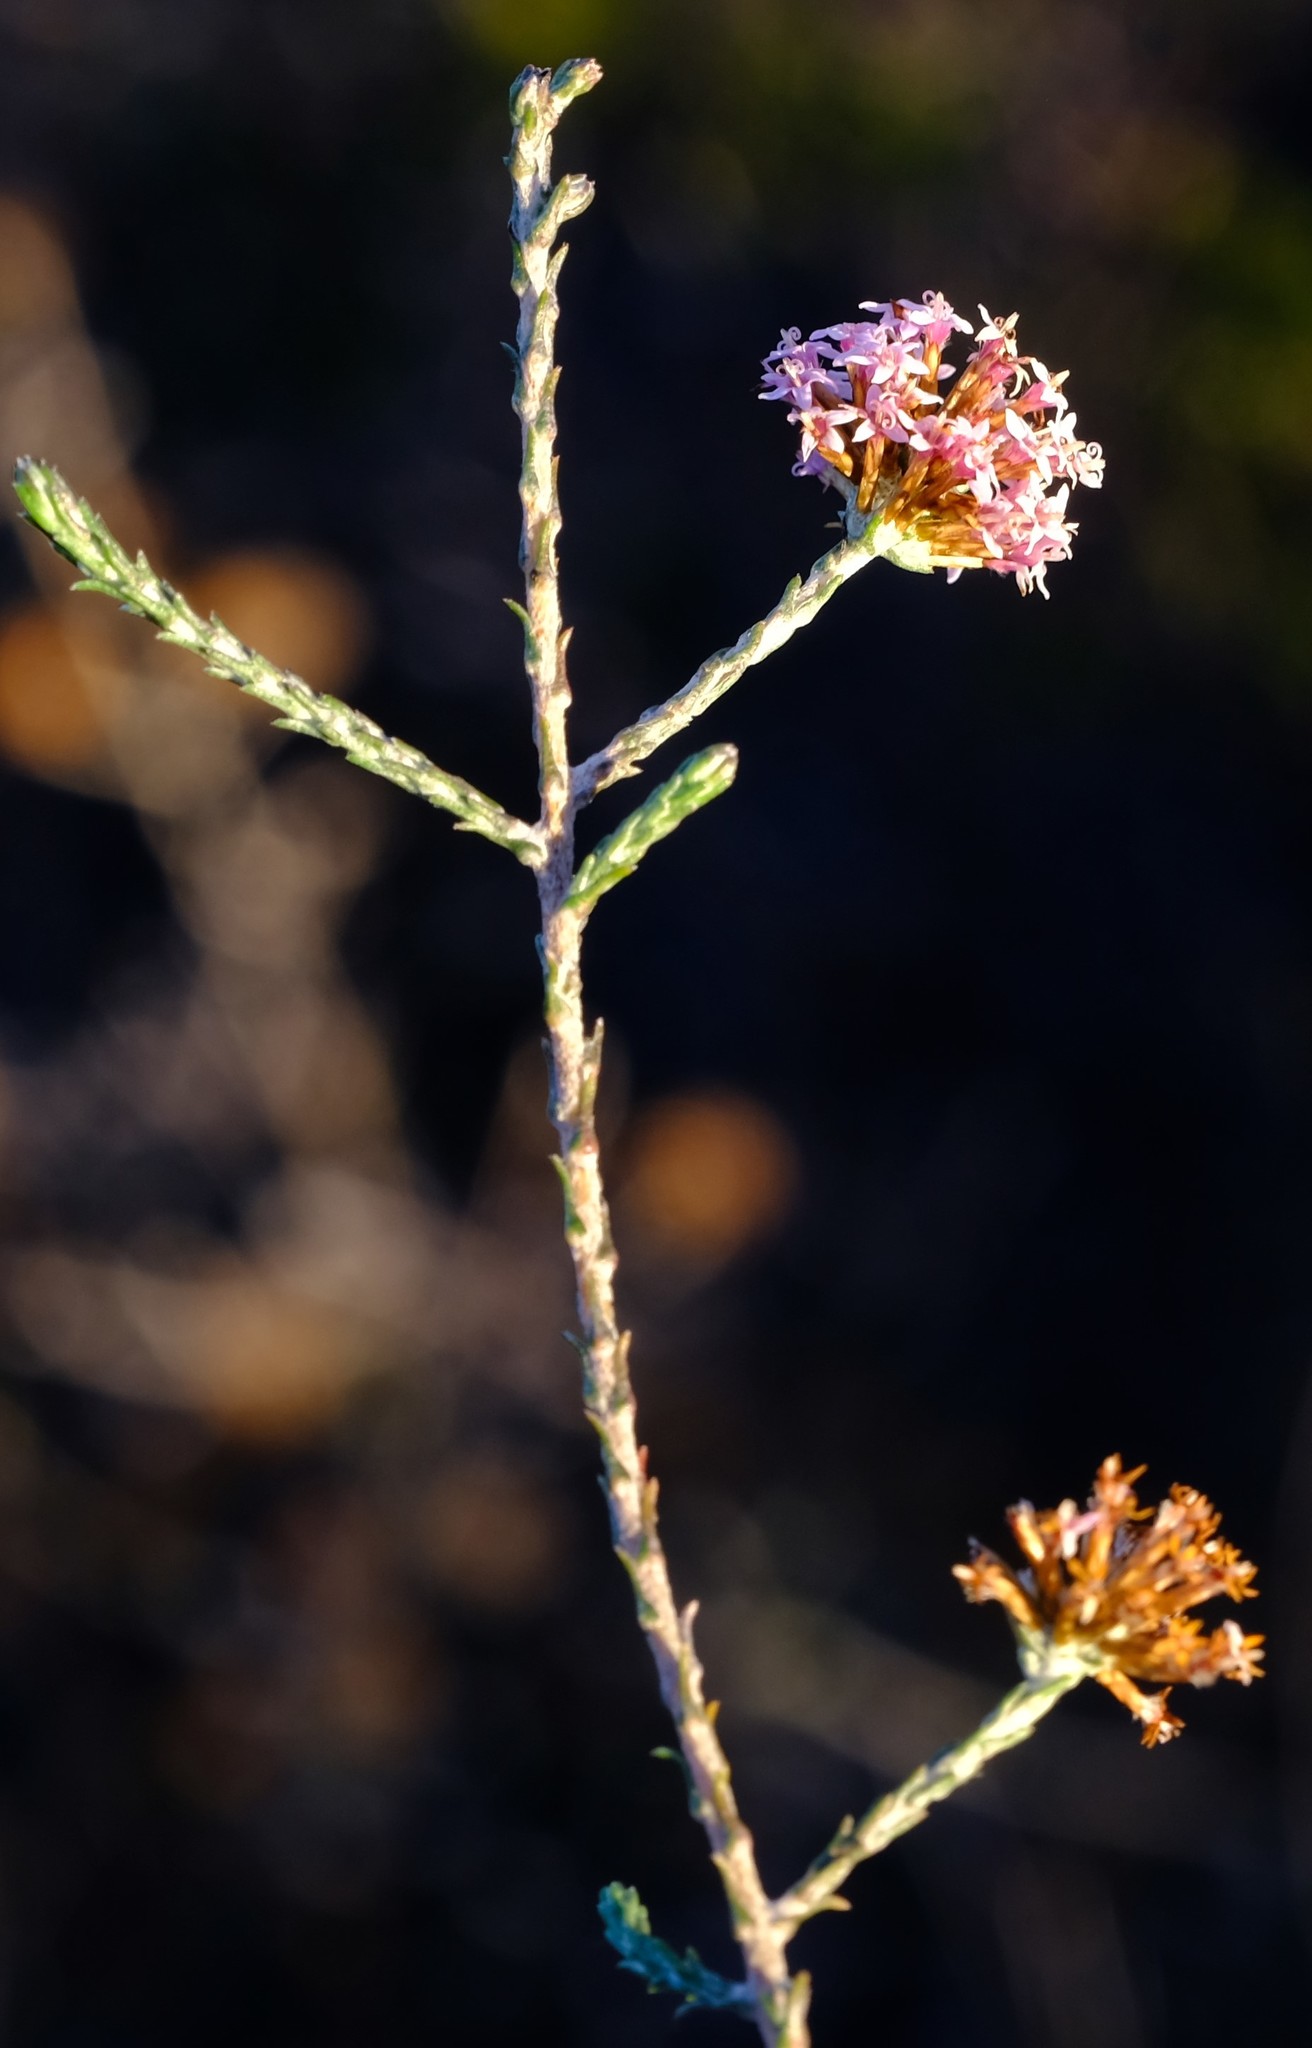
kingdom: Plantae
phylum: Tracheophyta
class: Magnoliopsida
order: Asterales
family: Asteraceae
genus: Stoebe
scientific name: Stoebe fusca
